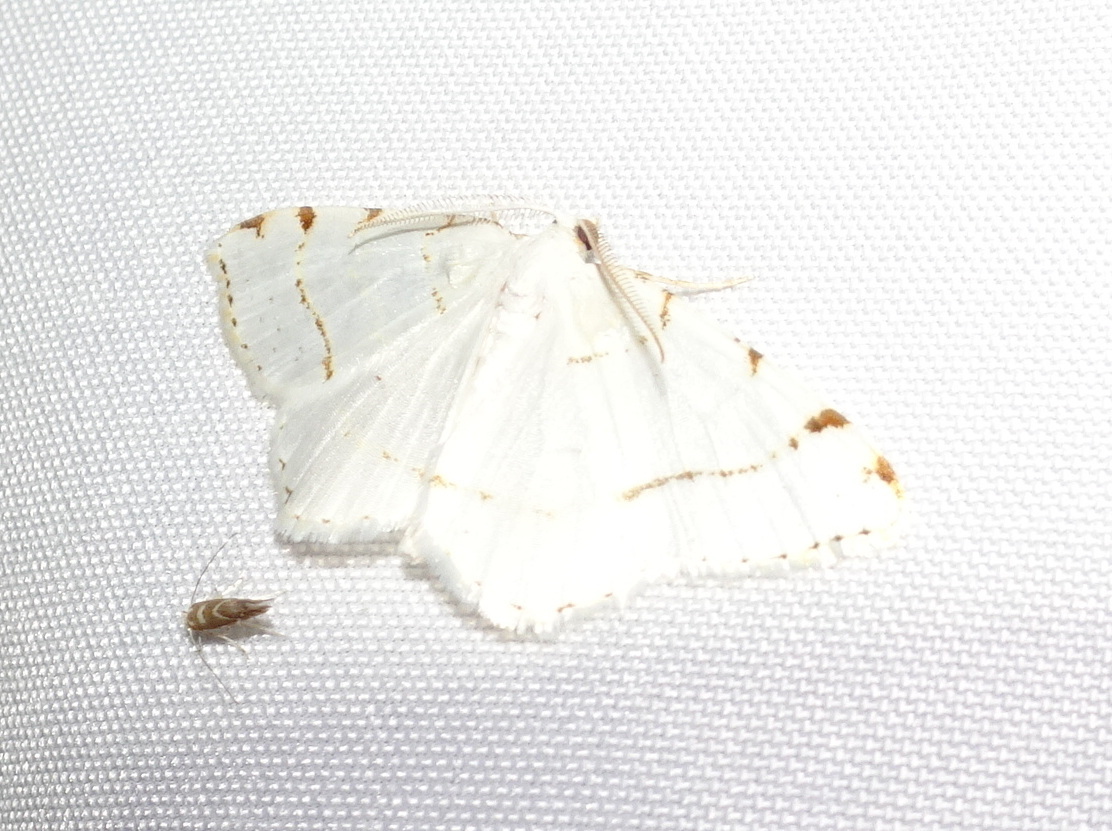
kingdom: Animalia
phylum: Arthropoda
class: Insecta
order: Lepidoptera
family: Geometridae
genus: Macaria
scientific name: Macaria pustularia
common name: Lesser maple spanworm moth
